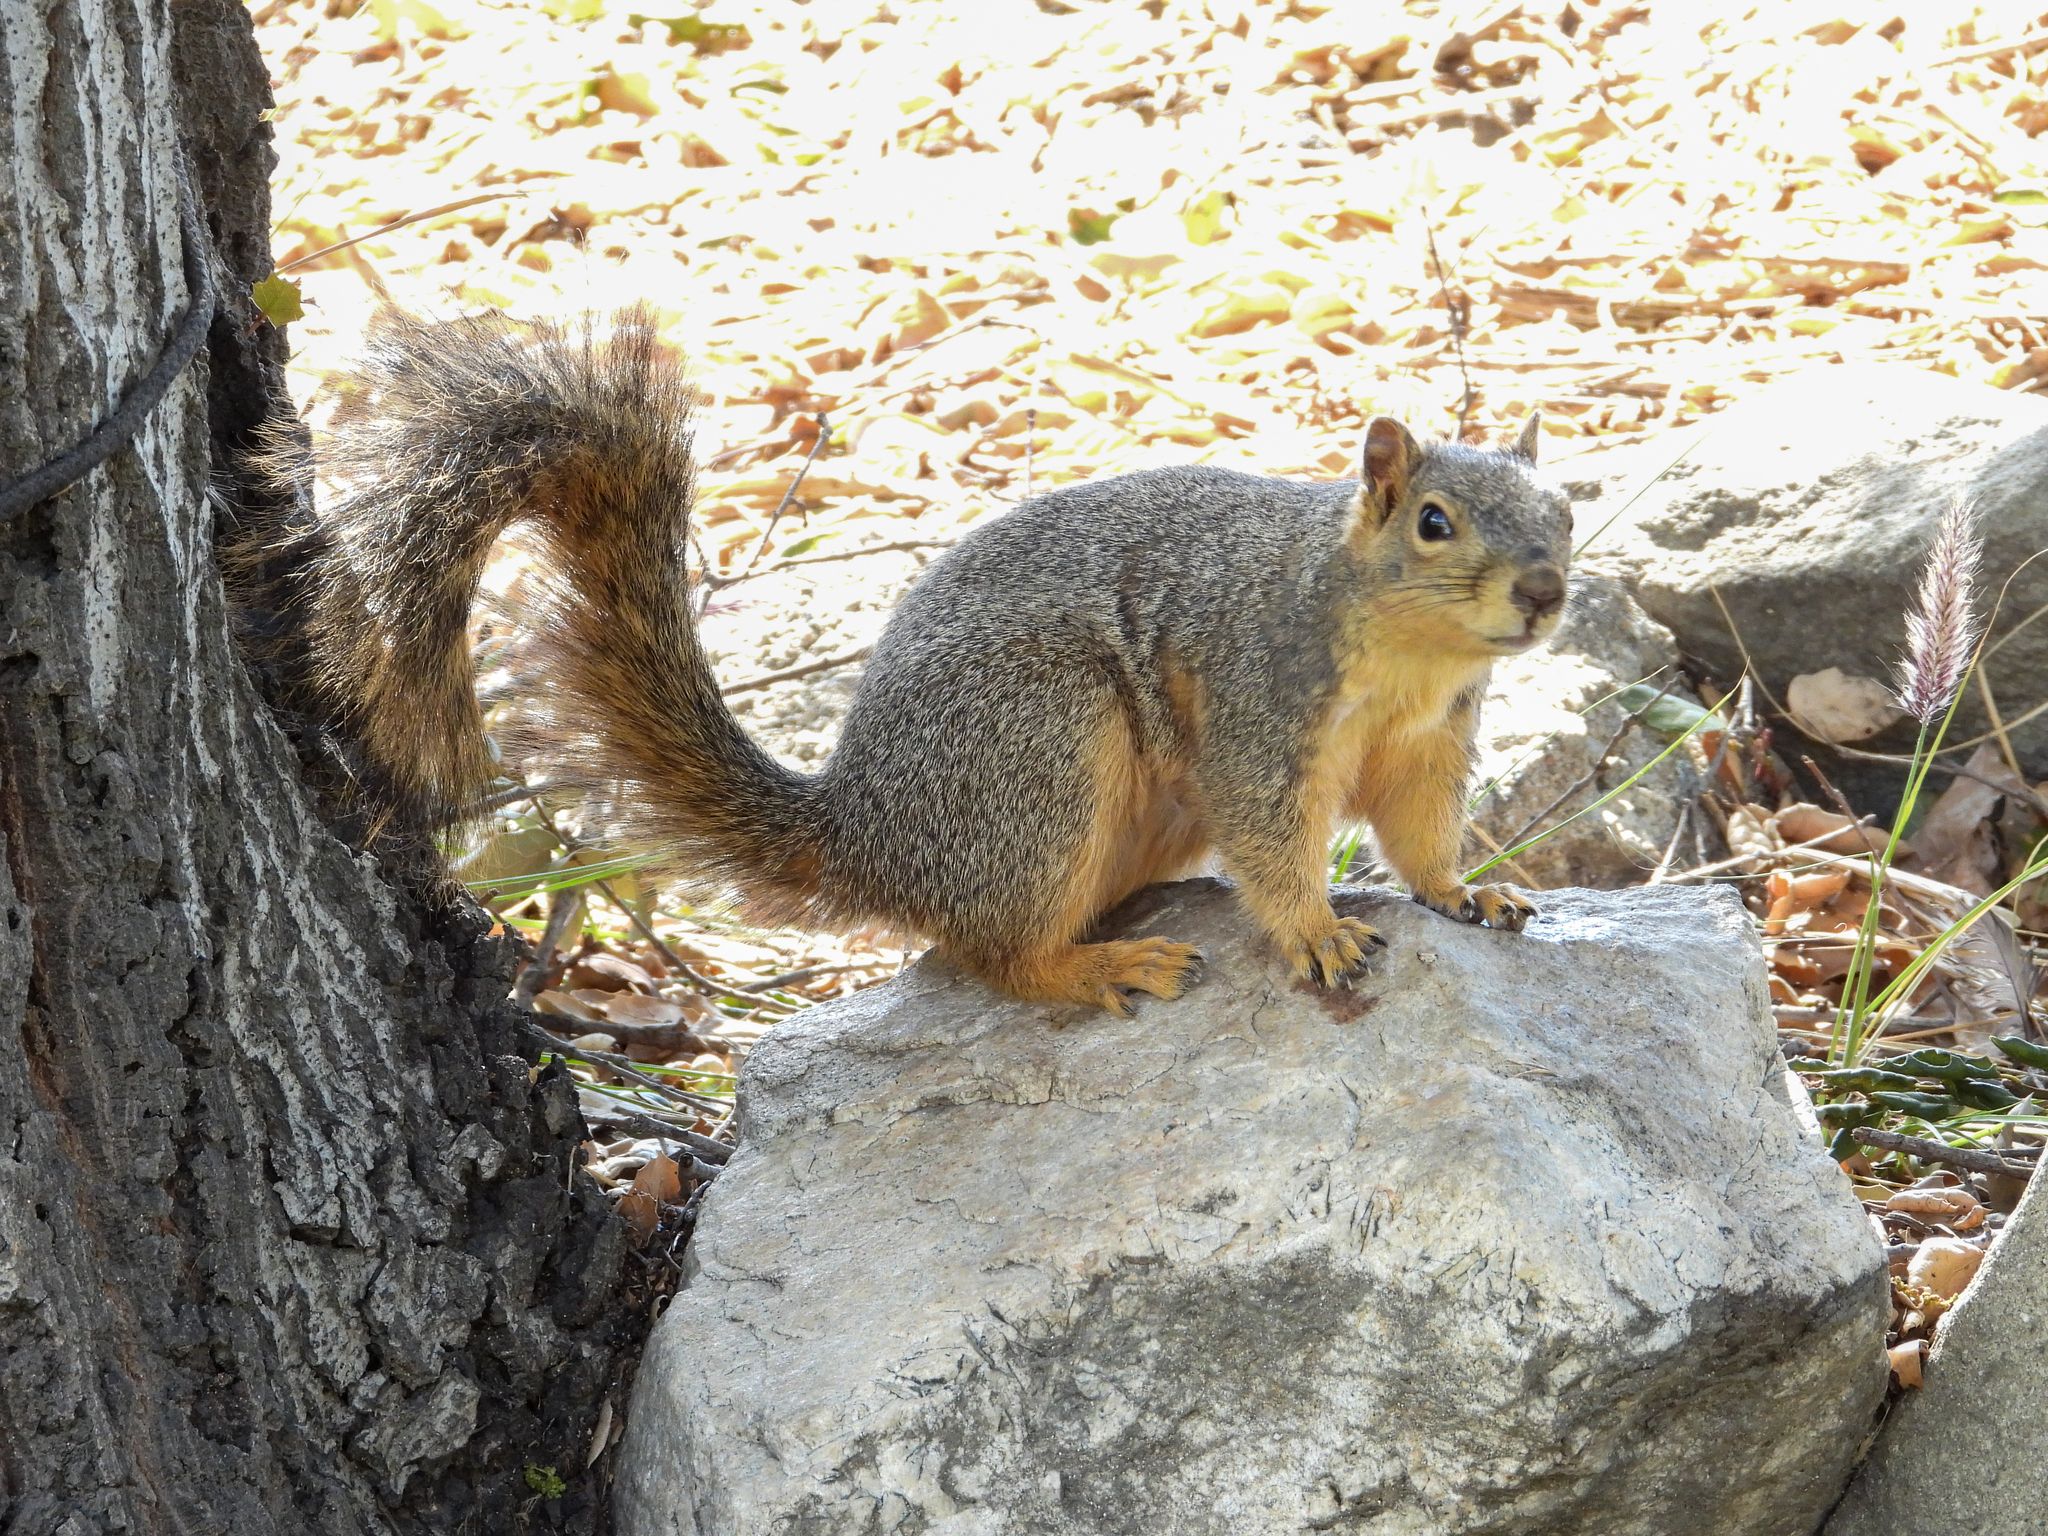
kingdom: Animalia
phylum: Chordata
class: Mammalia
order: Rodentia
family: Sciuridae
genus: Sciurus
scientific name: Sciurus niger
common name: Fox squirrel
